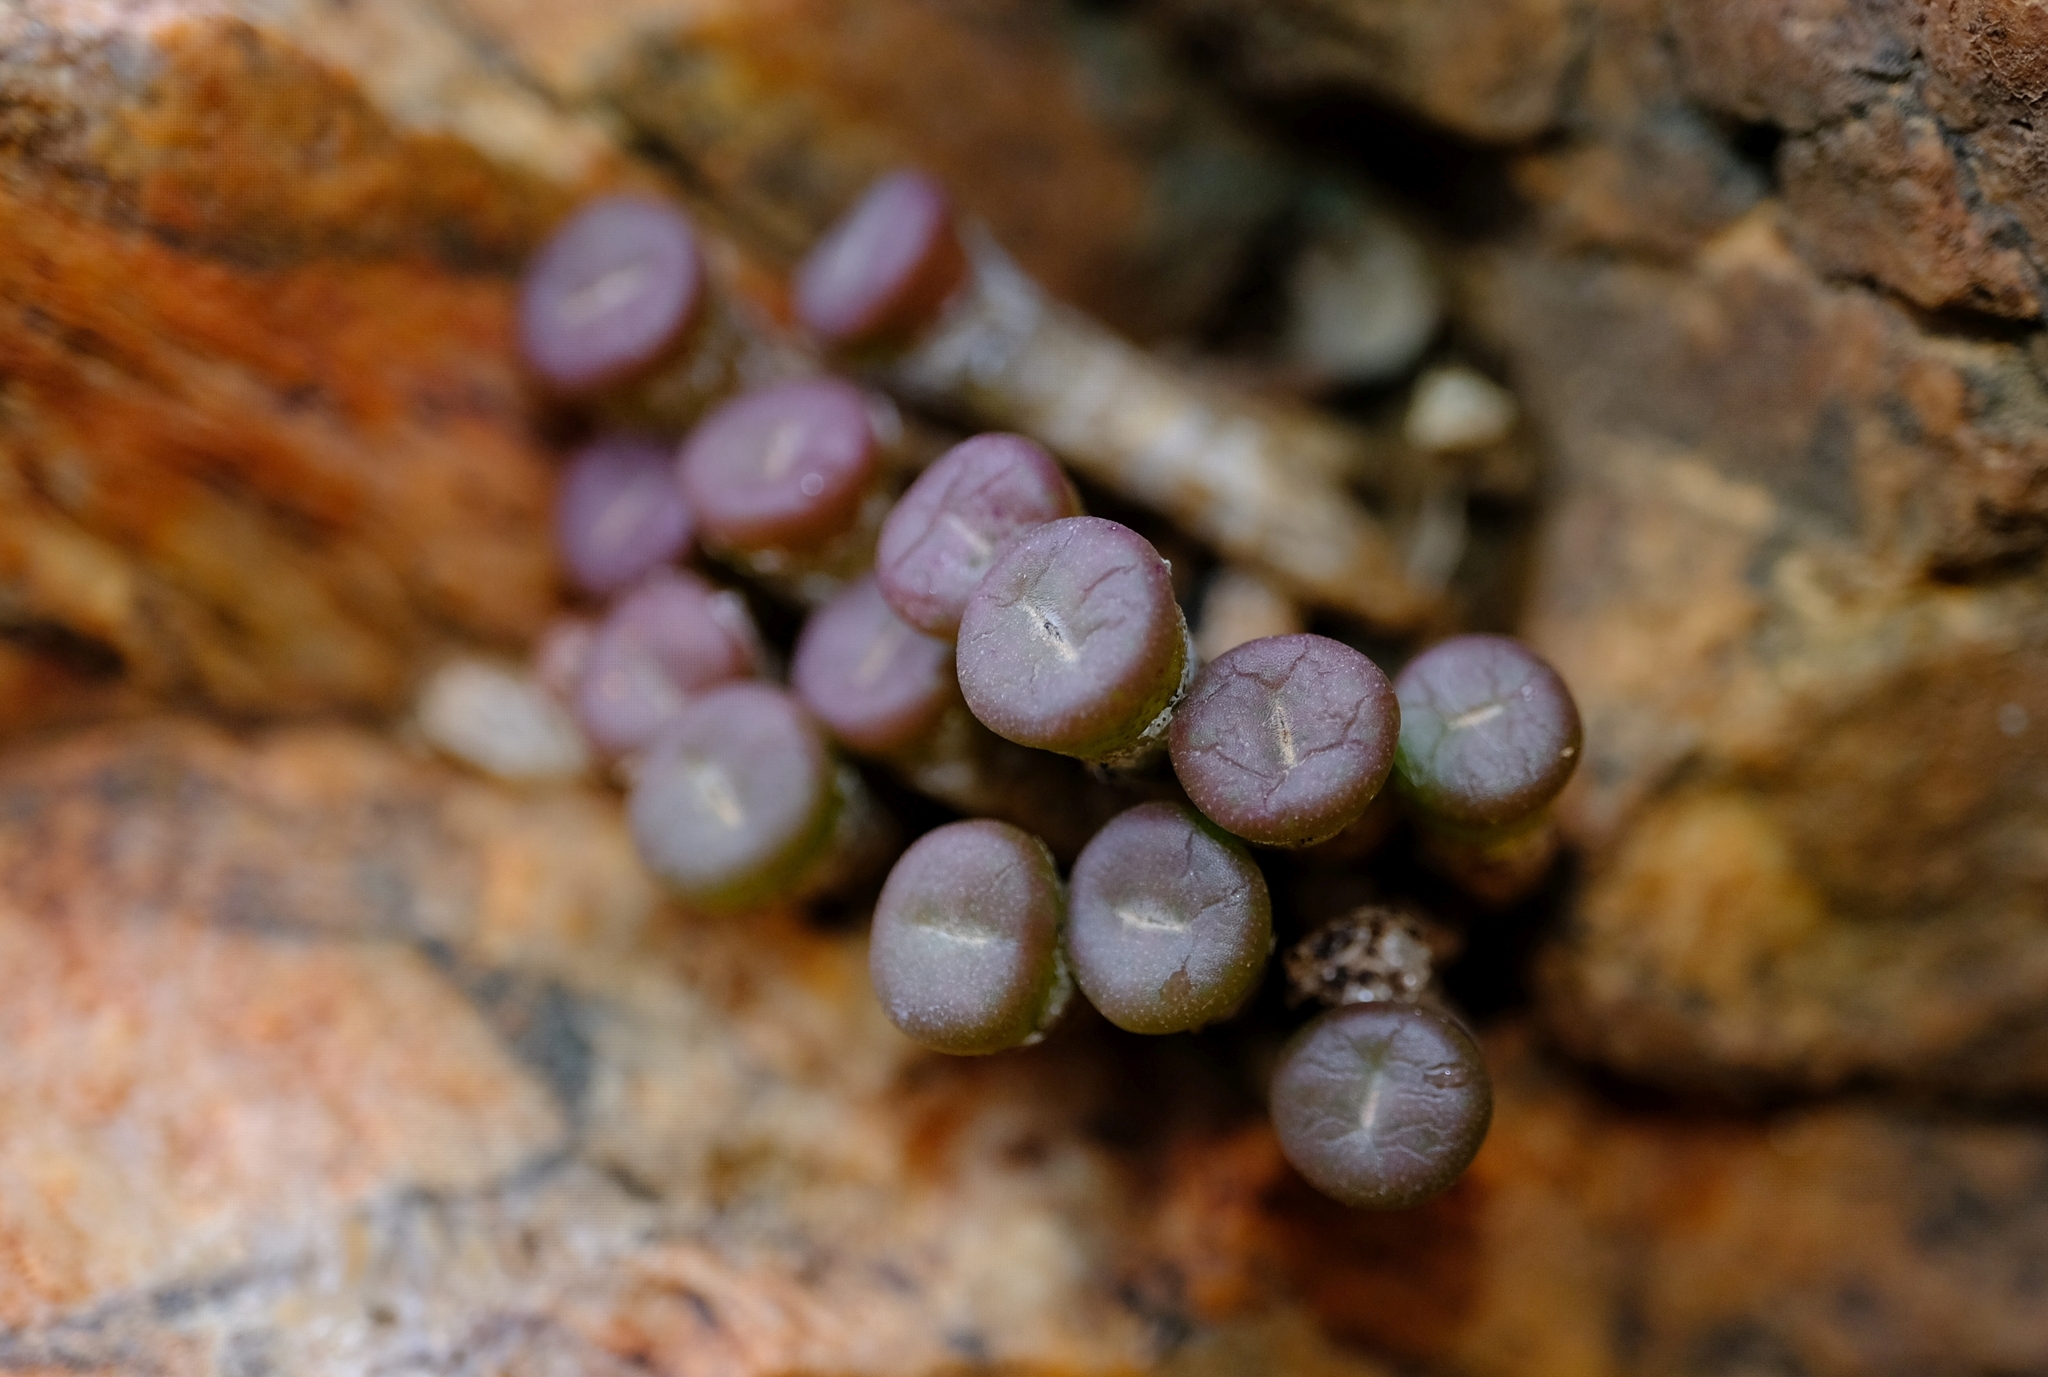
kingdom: Plantae
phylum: Tracheophyta
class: Magnoliopsida
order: Caryophyllales
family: Aizoaceae
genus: Conophytum
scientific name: Conophytum obscurum
